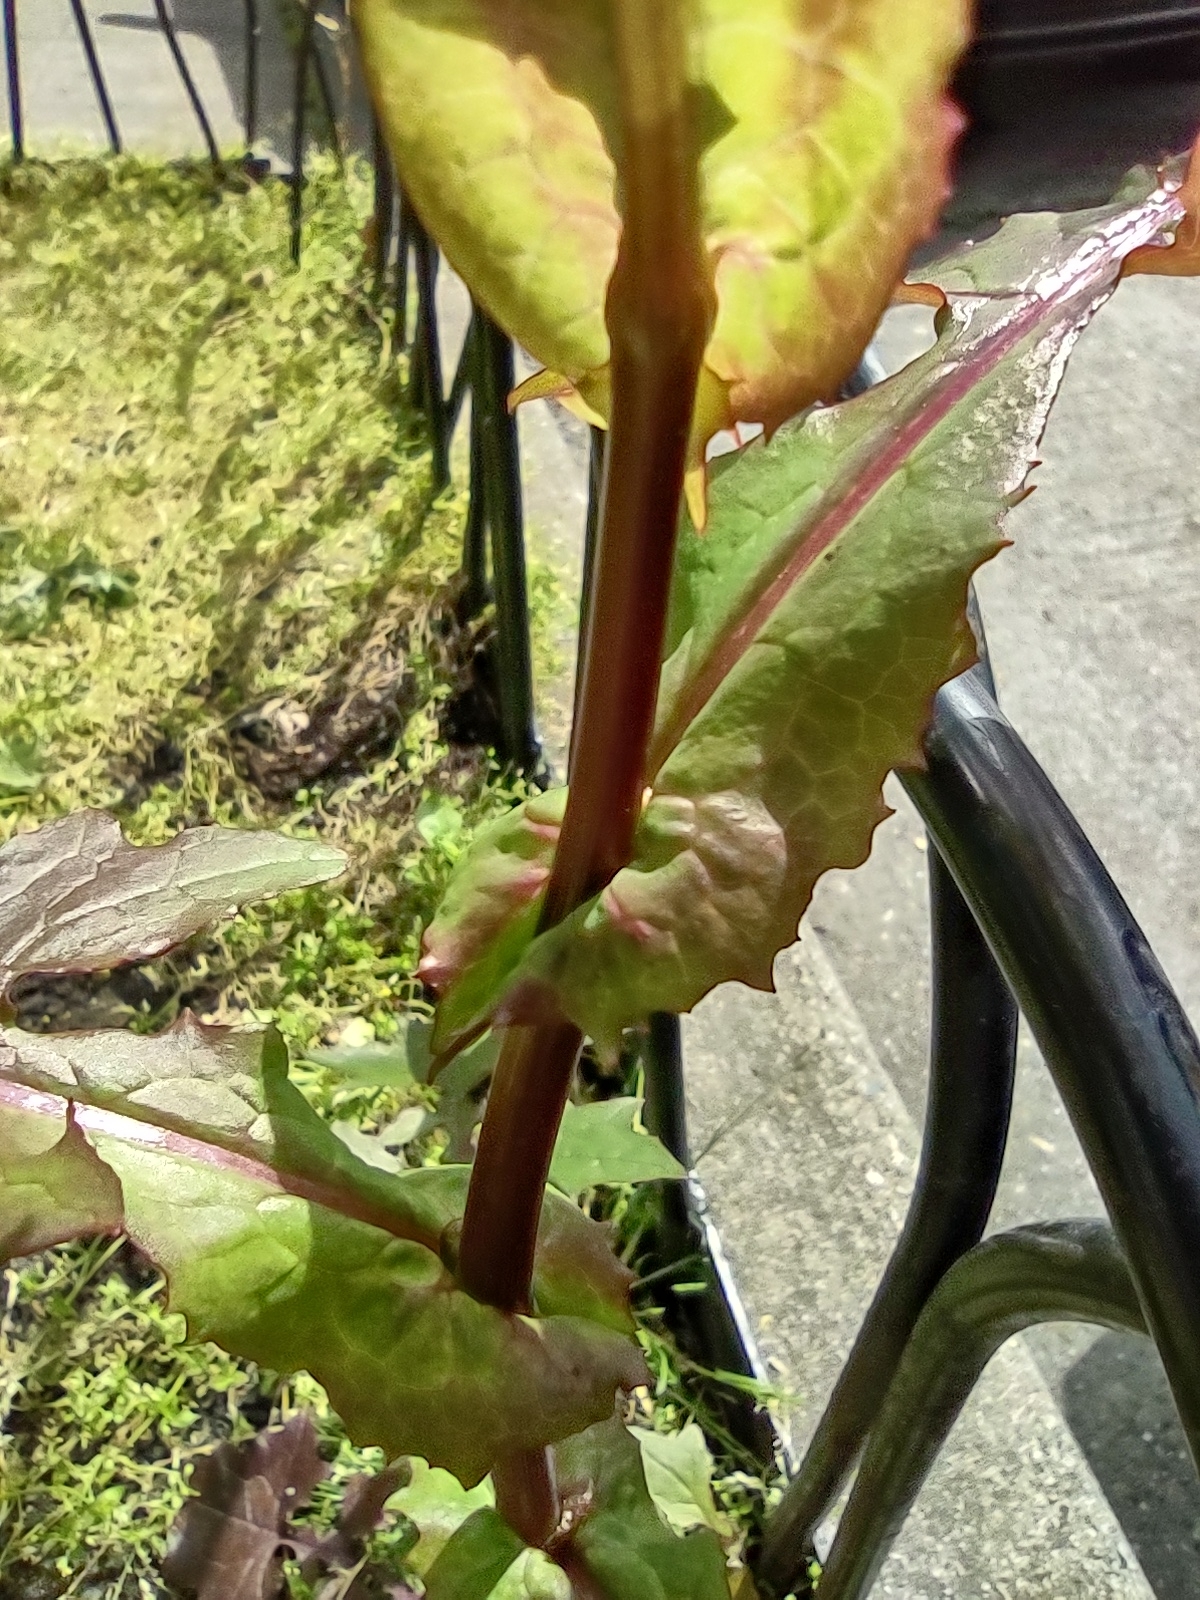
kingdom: Plantae
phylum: Tracheophyta
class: Magnoliopsida
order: Asterales
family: Asteraceae
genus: Mycelis
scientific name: Mycelis muralis
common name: Wall lettuce
